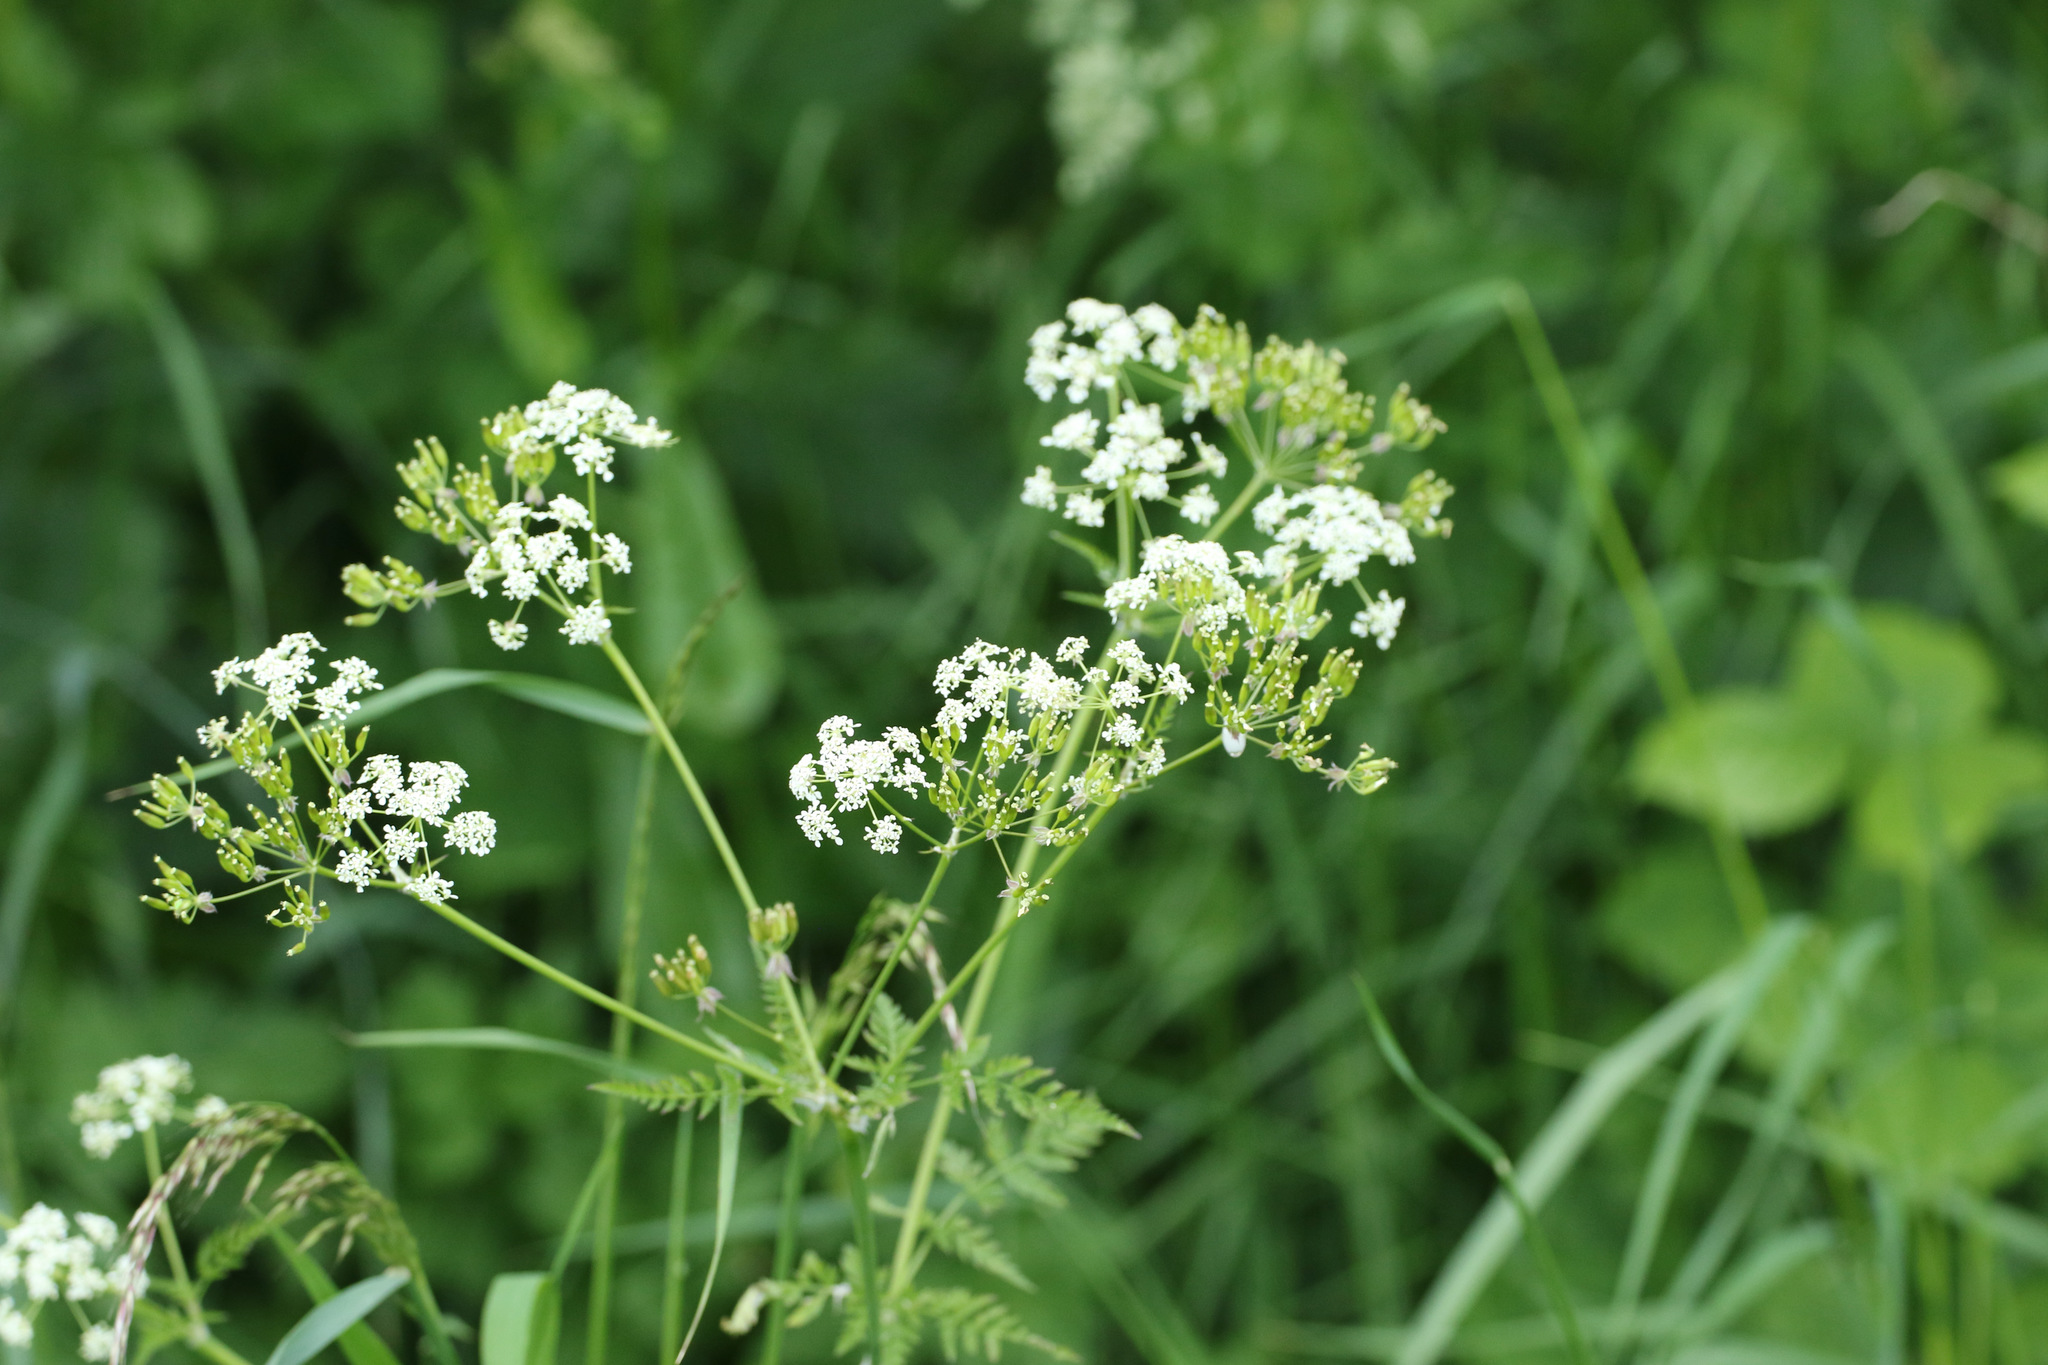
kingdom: Plantae
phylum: Tracheophyta
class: Magnoliopsida
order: Apiales
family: Apiaceae
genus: Anthriscus
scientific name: Anthriscus sylvestris
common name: Cow parsley
